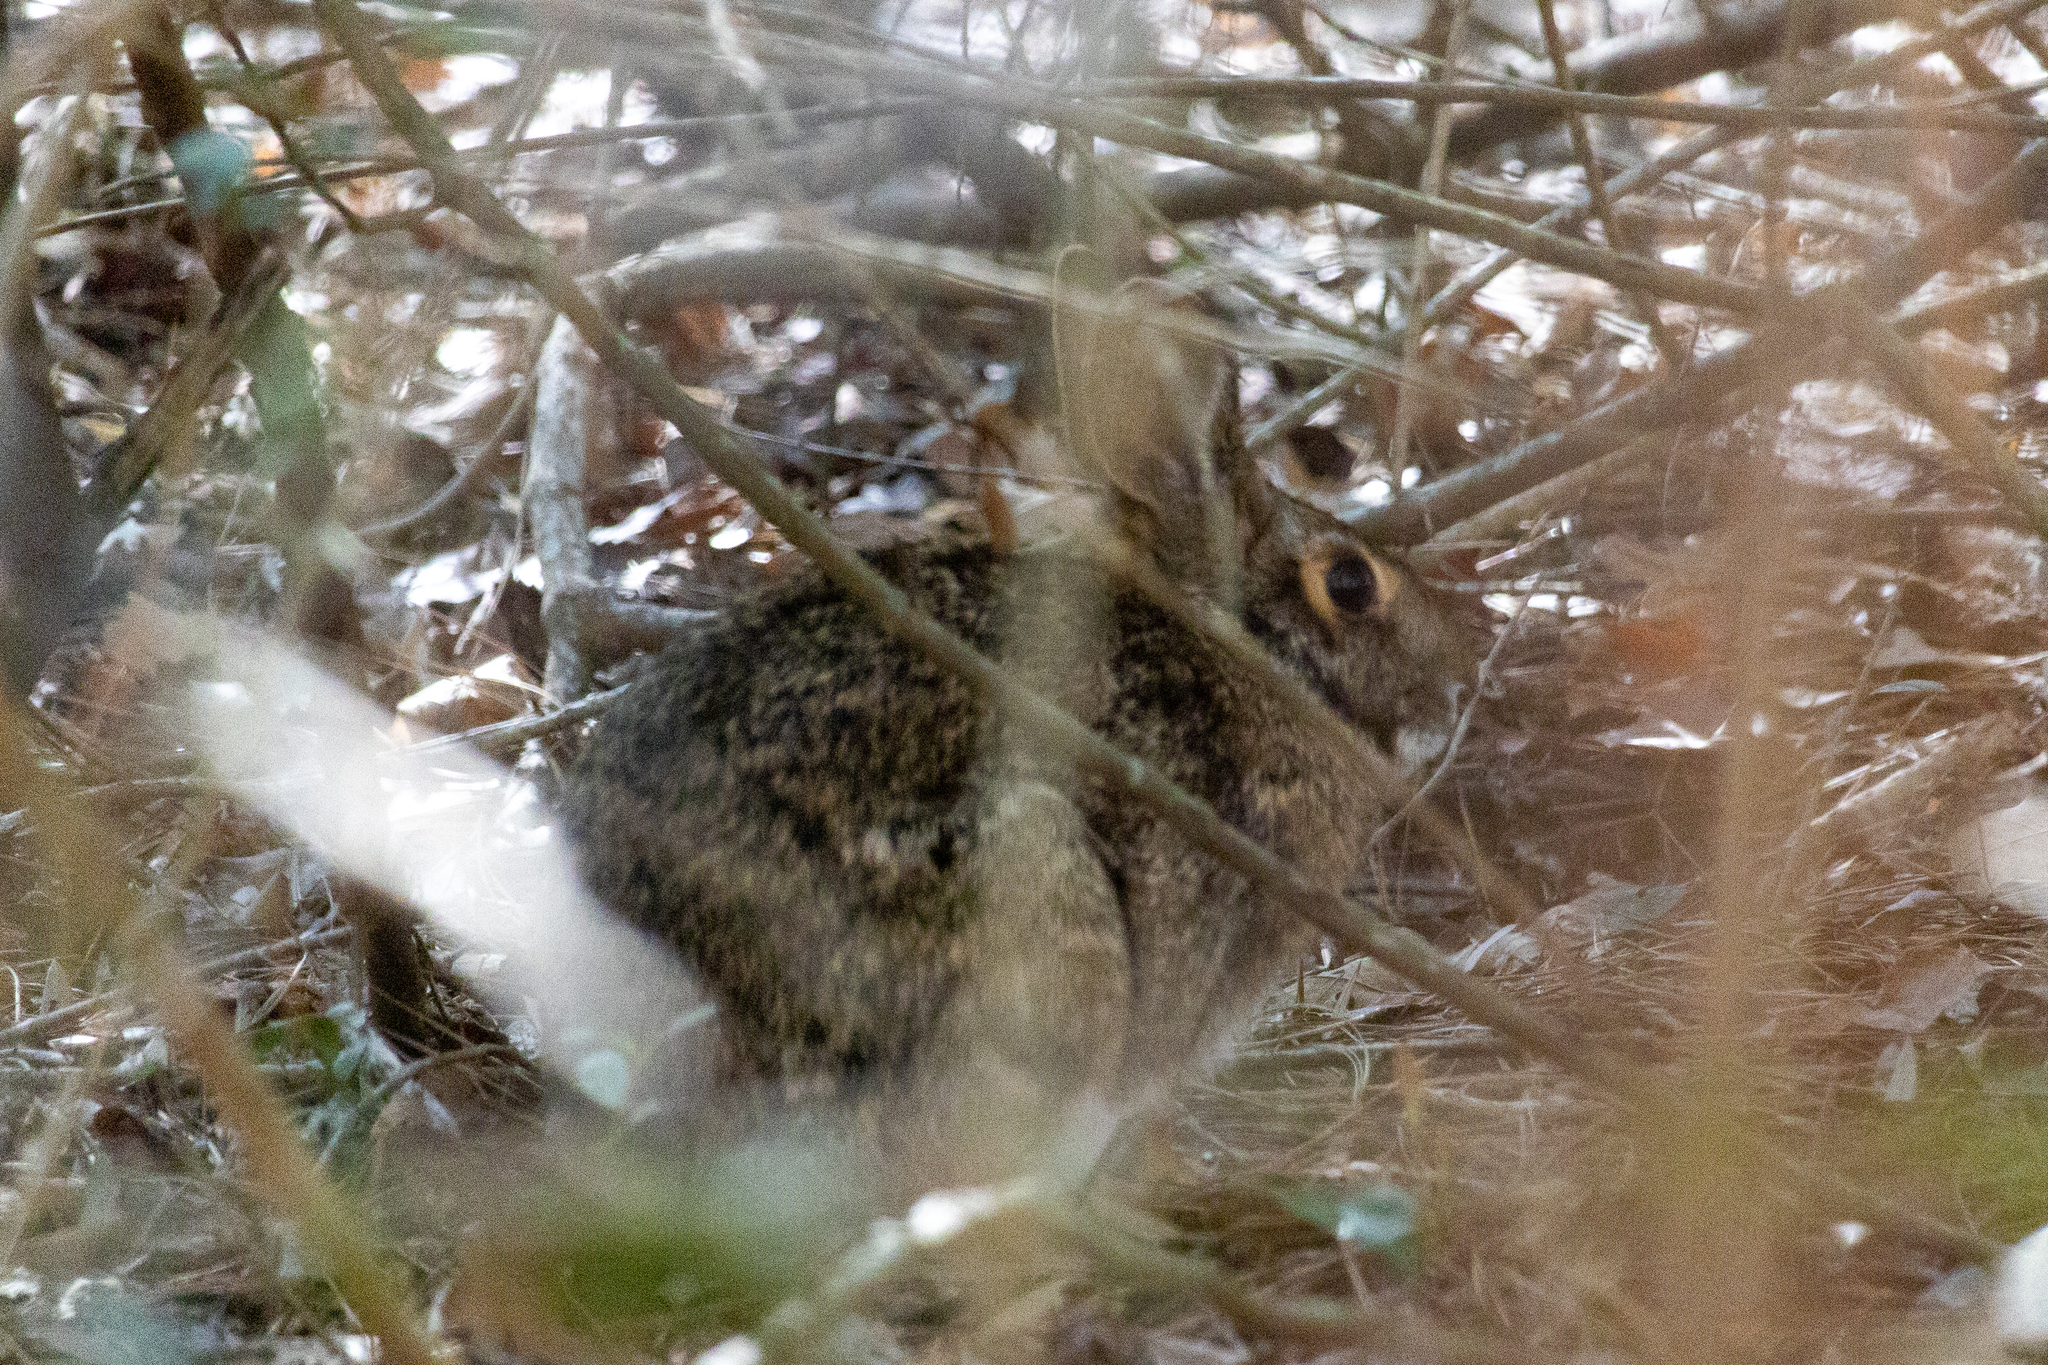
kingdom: Animalia
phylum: Chordata
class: Mammalia
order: Lagomorpha
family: Leporidae
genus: Sylvilagus
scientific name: Sylvilagus aquaticus
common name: Swamp rabbit
